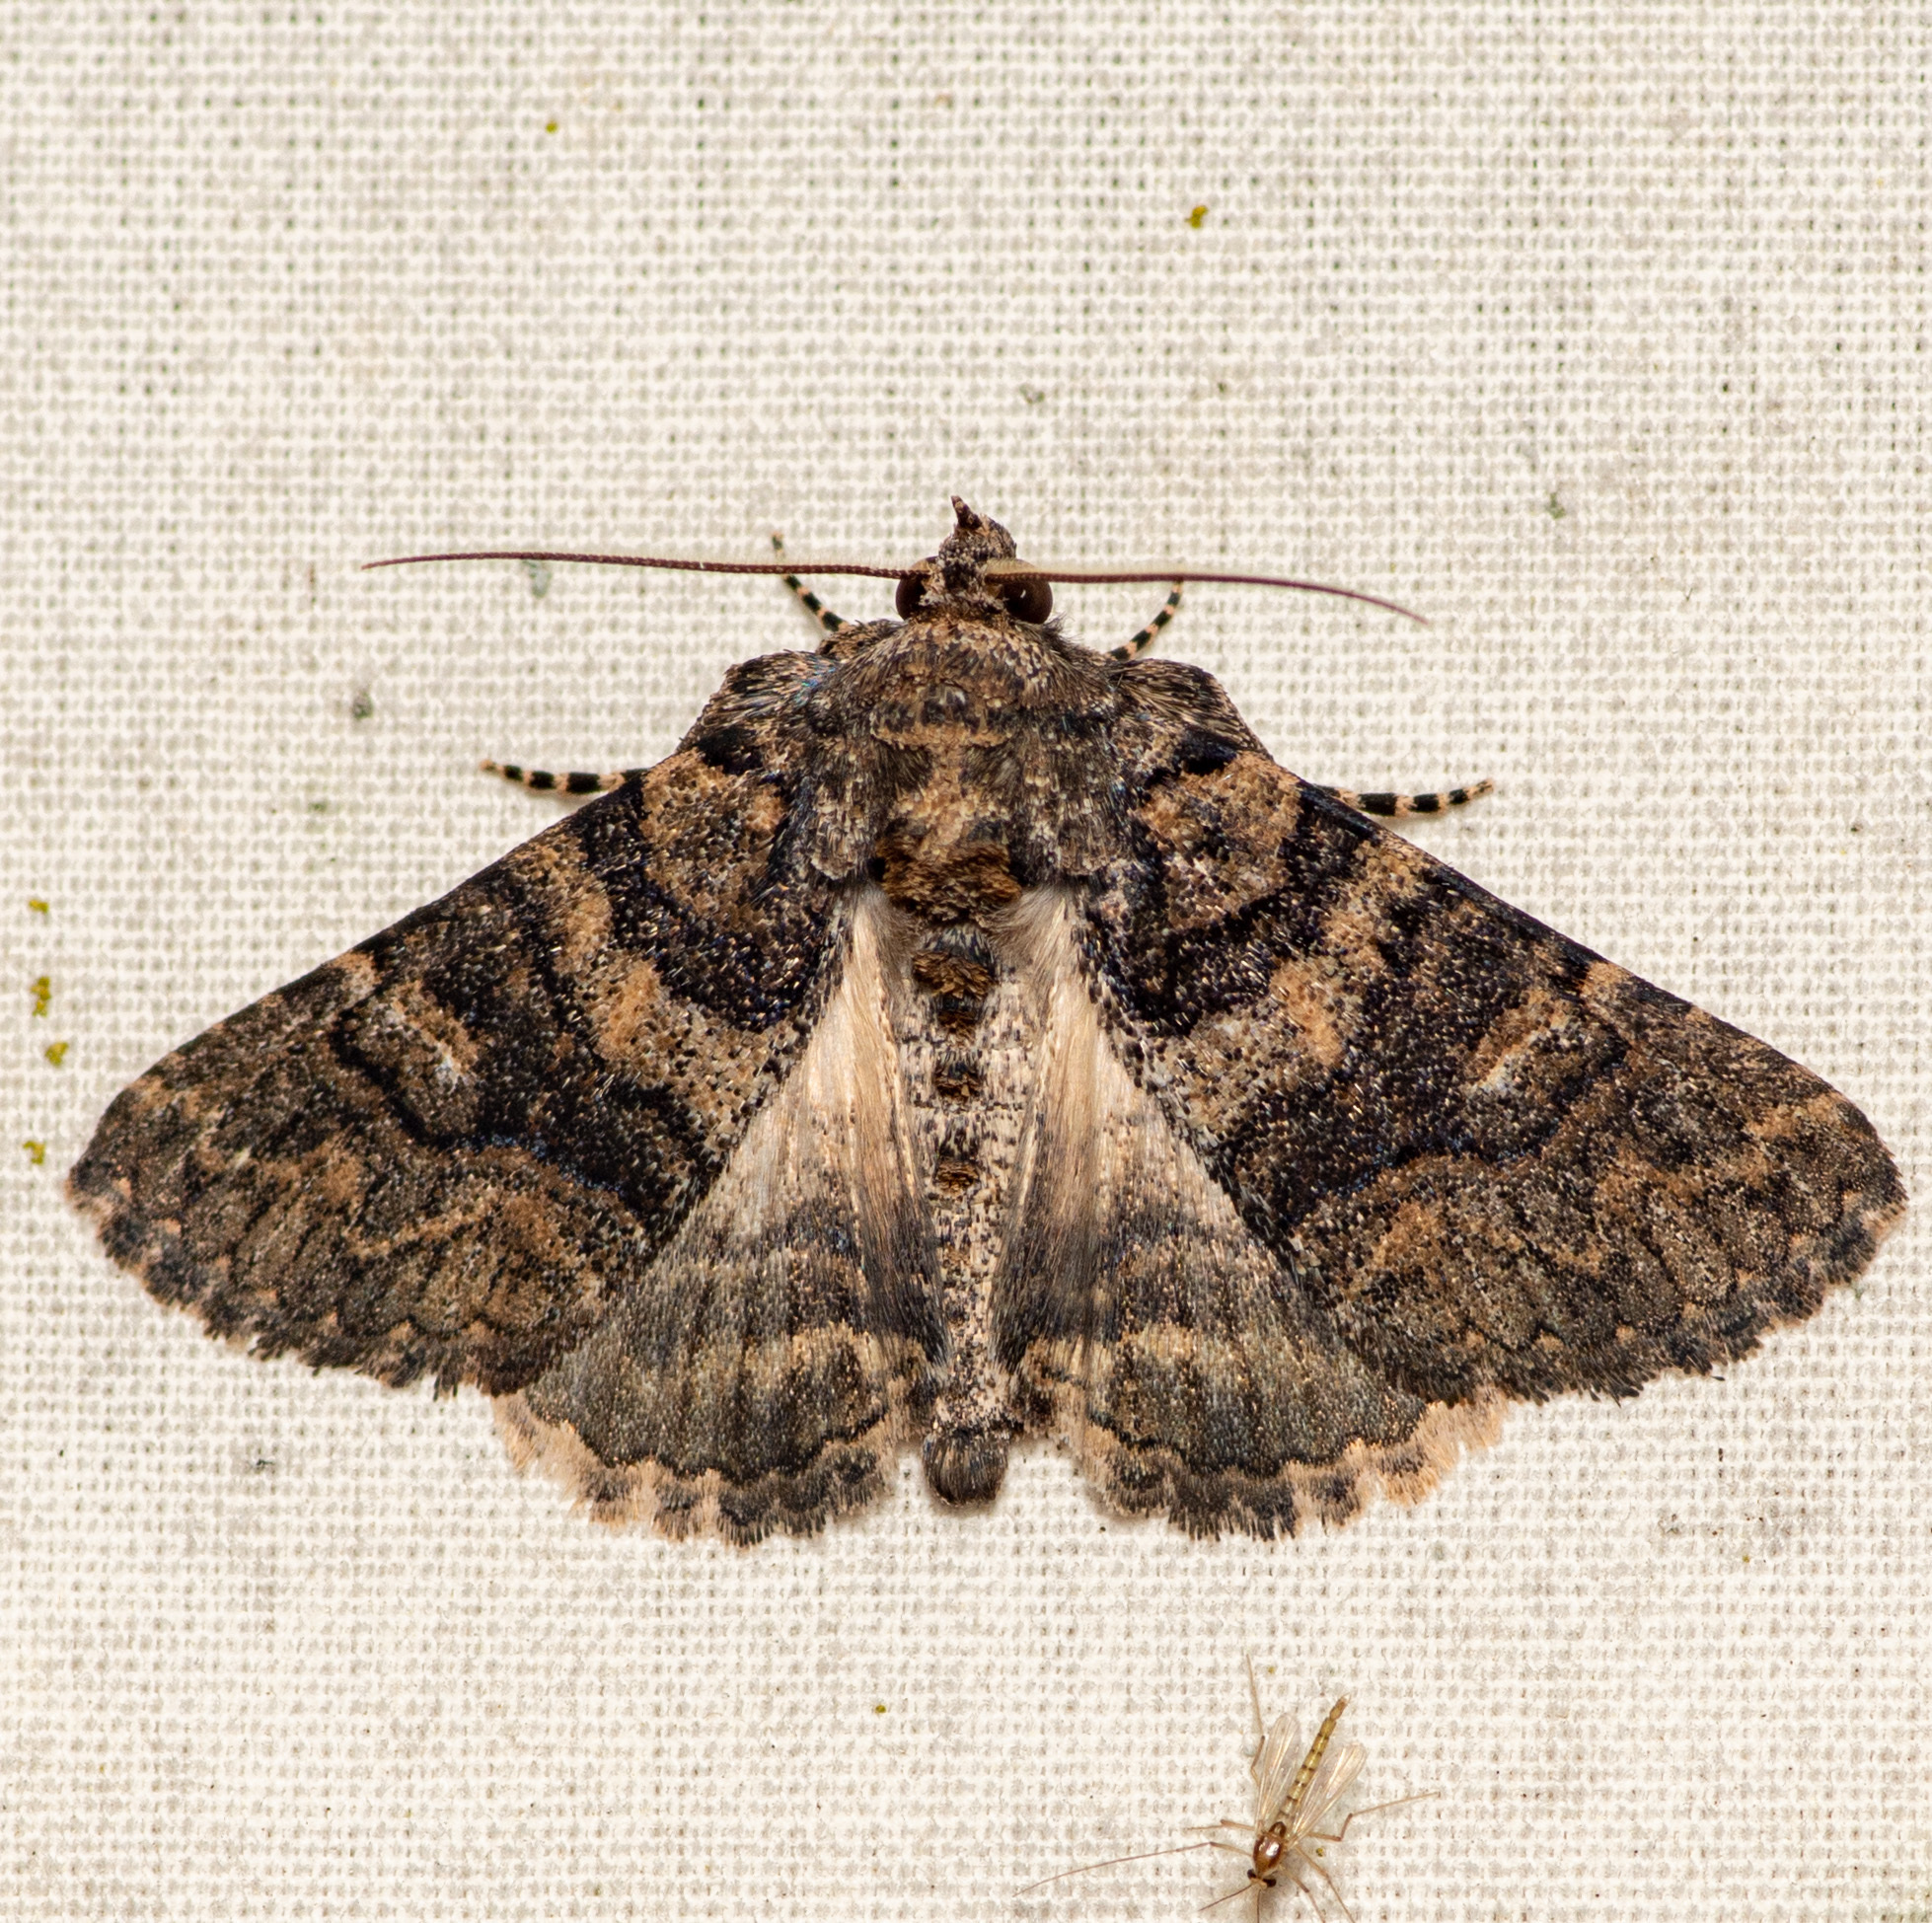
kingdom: Animalia
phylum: Arthropoda
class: Insecta
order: Lepidoptera
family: Erebidae
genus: Elousa
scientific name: Elousa mima
